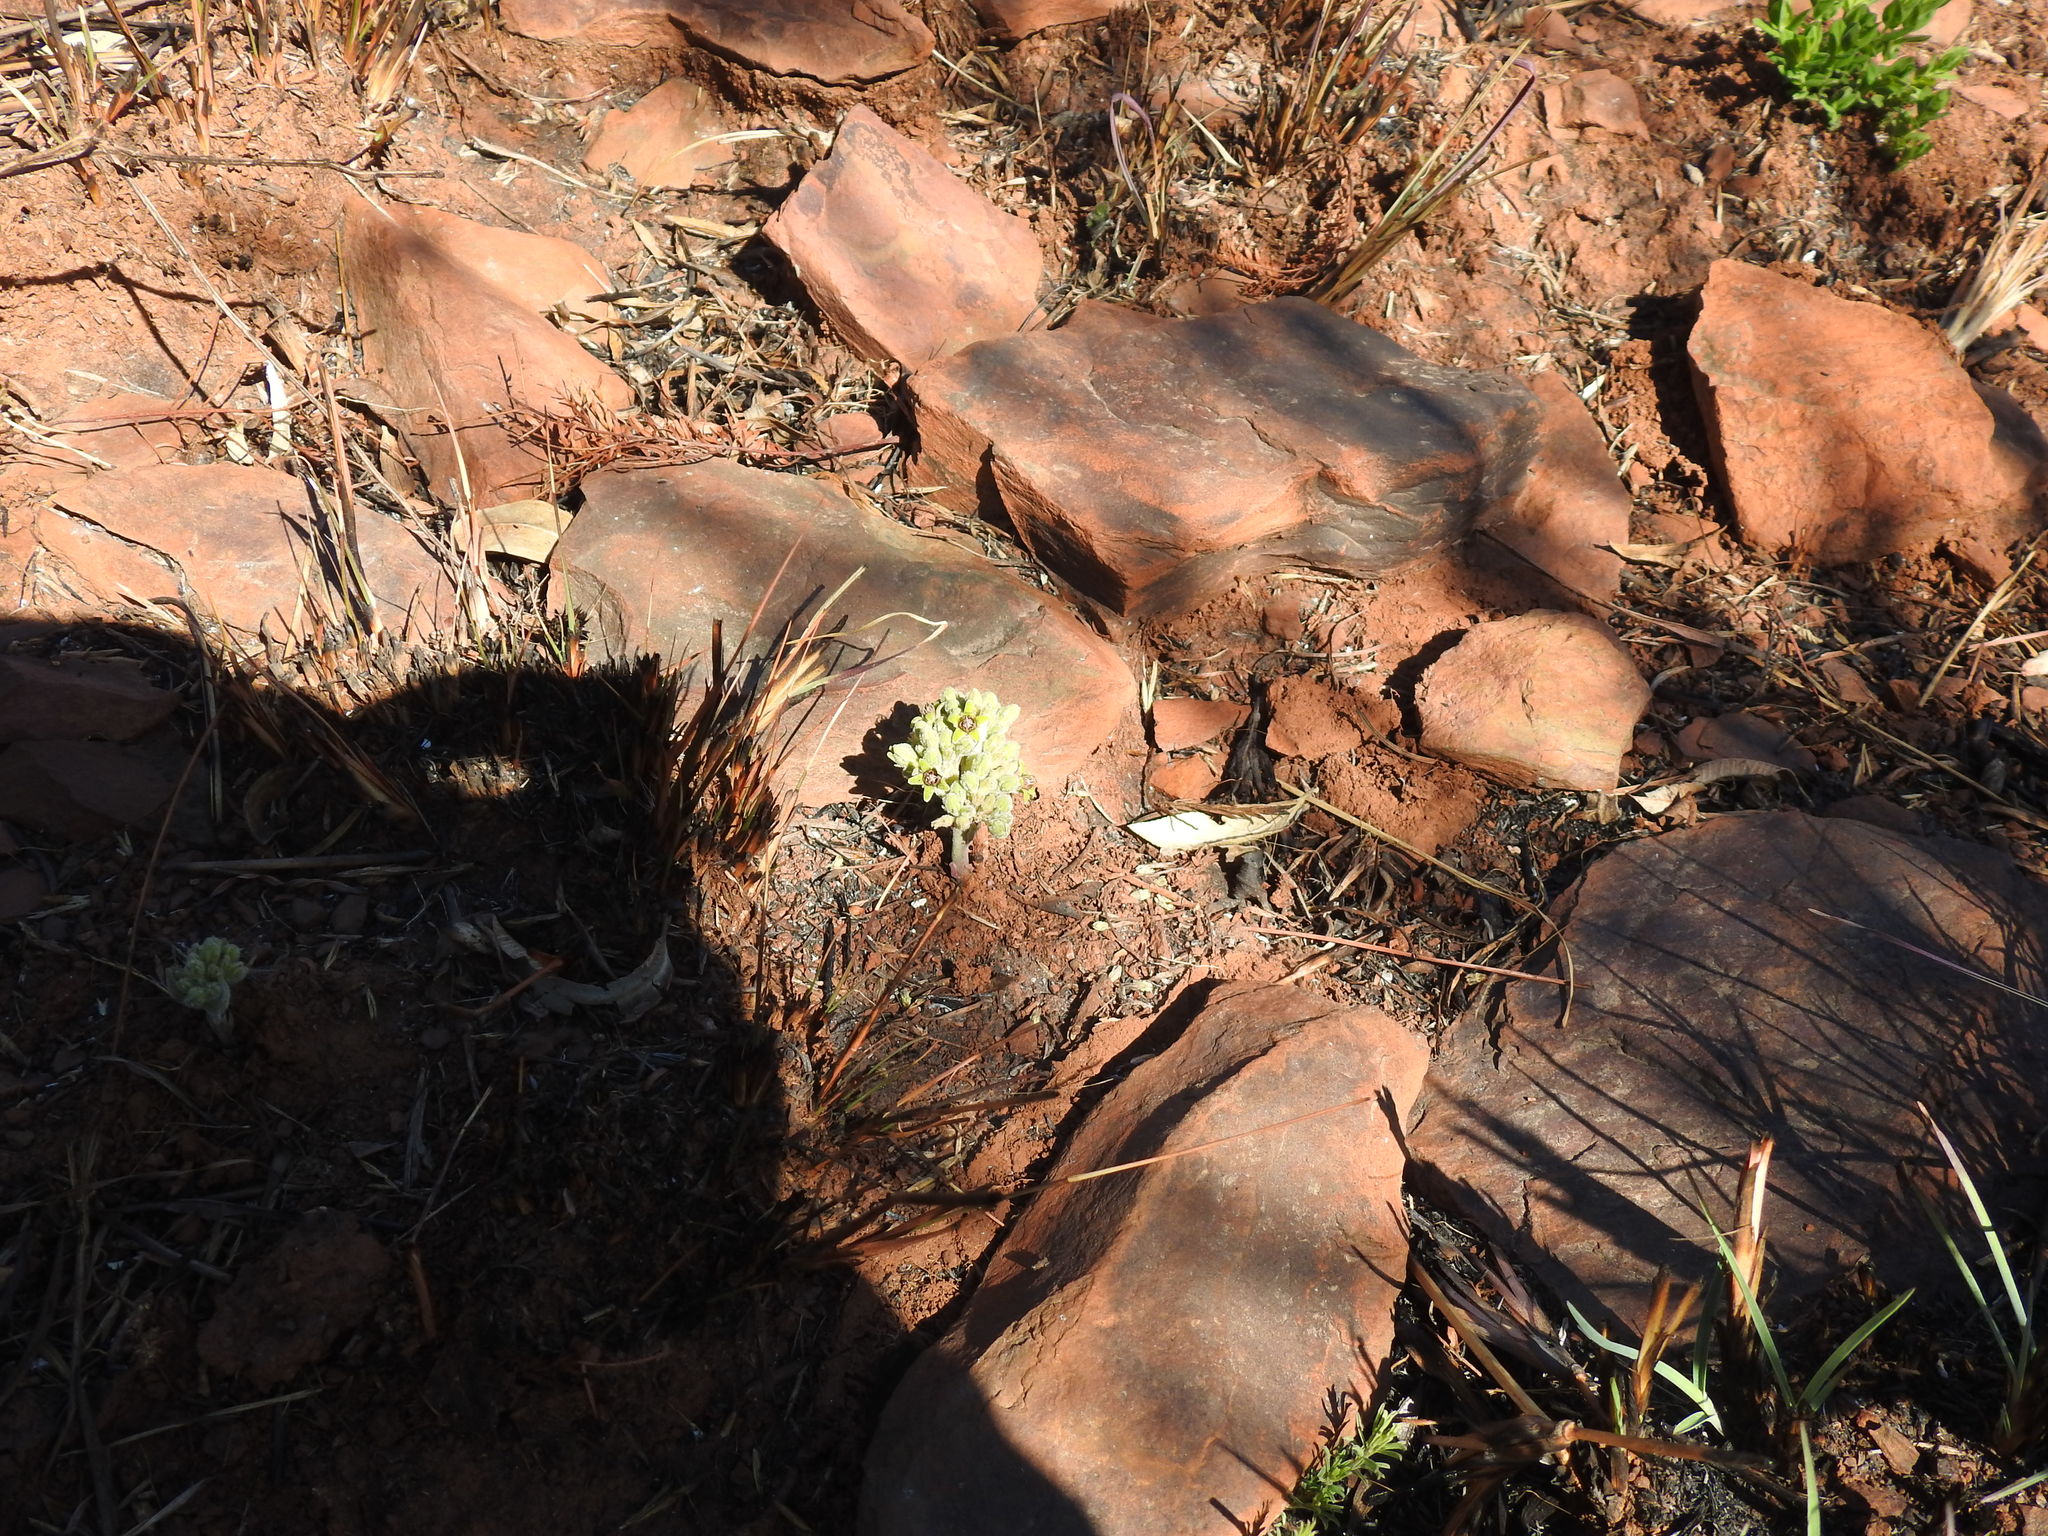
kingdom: Plantae
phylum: Tracheophyta
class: Magnoliopsida
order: Gentianales
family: Apocynaceae
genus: Raphionacme
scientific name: Raphionacme galpinii
